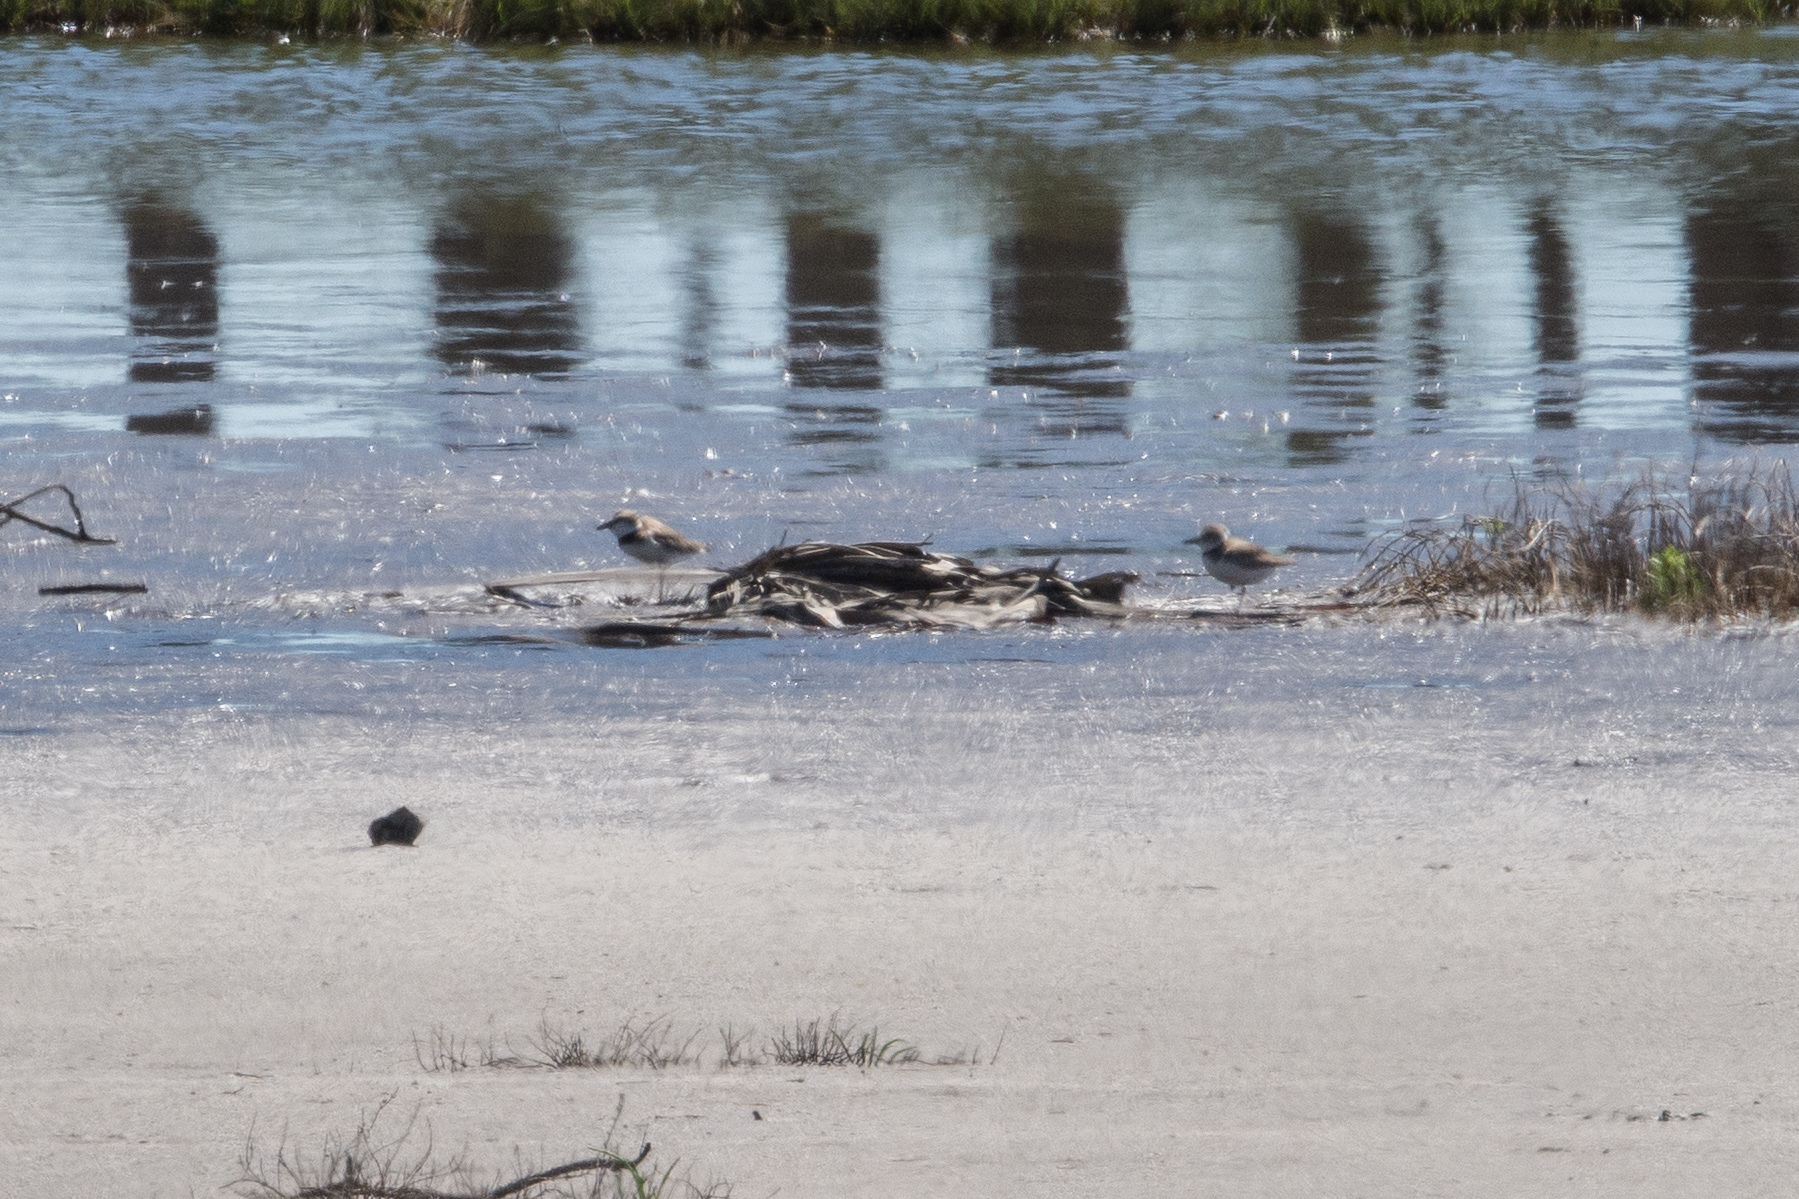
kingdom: Animalia
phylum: Chordata
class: Aves
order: Charadriiformes
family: Charadriidae
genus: Anarhynchus
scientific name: Anarhynchus
